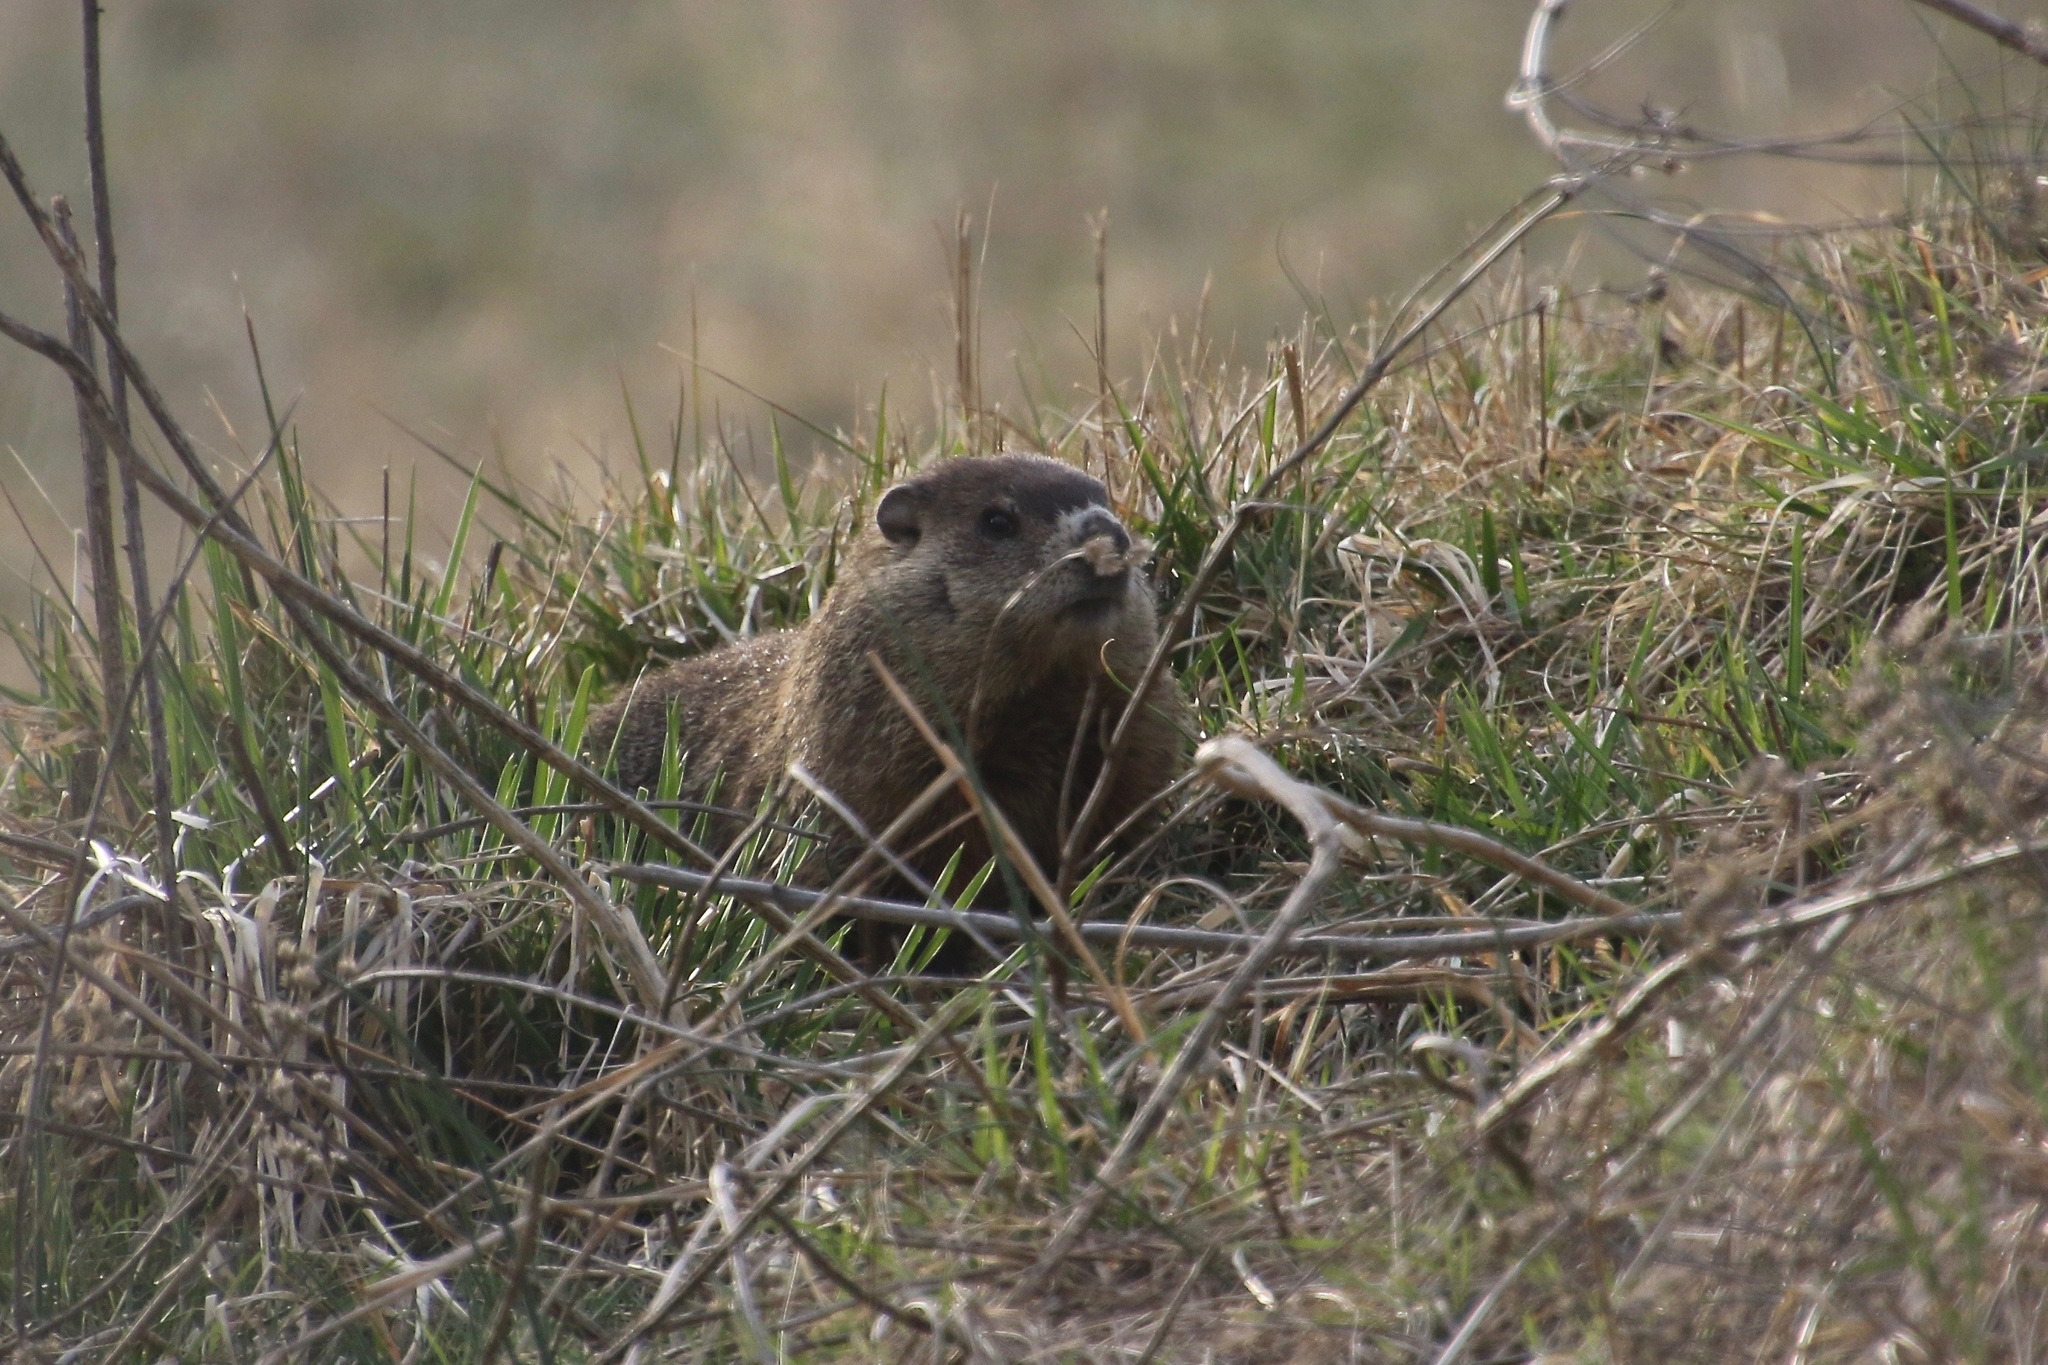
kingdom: Animalia
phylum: Chordata
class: Mammalia
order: Rodentia
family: Sciuridae
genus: Marmota
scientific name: Marmota monax
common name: Groundhog
